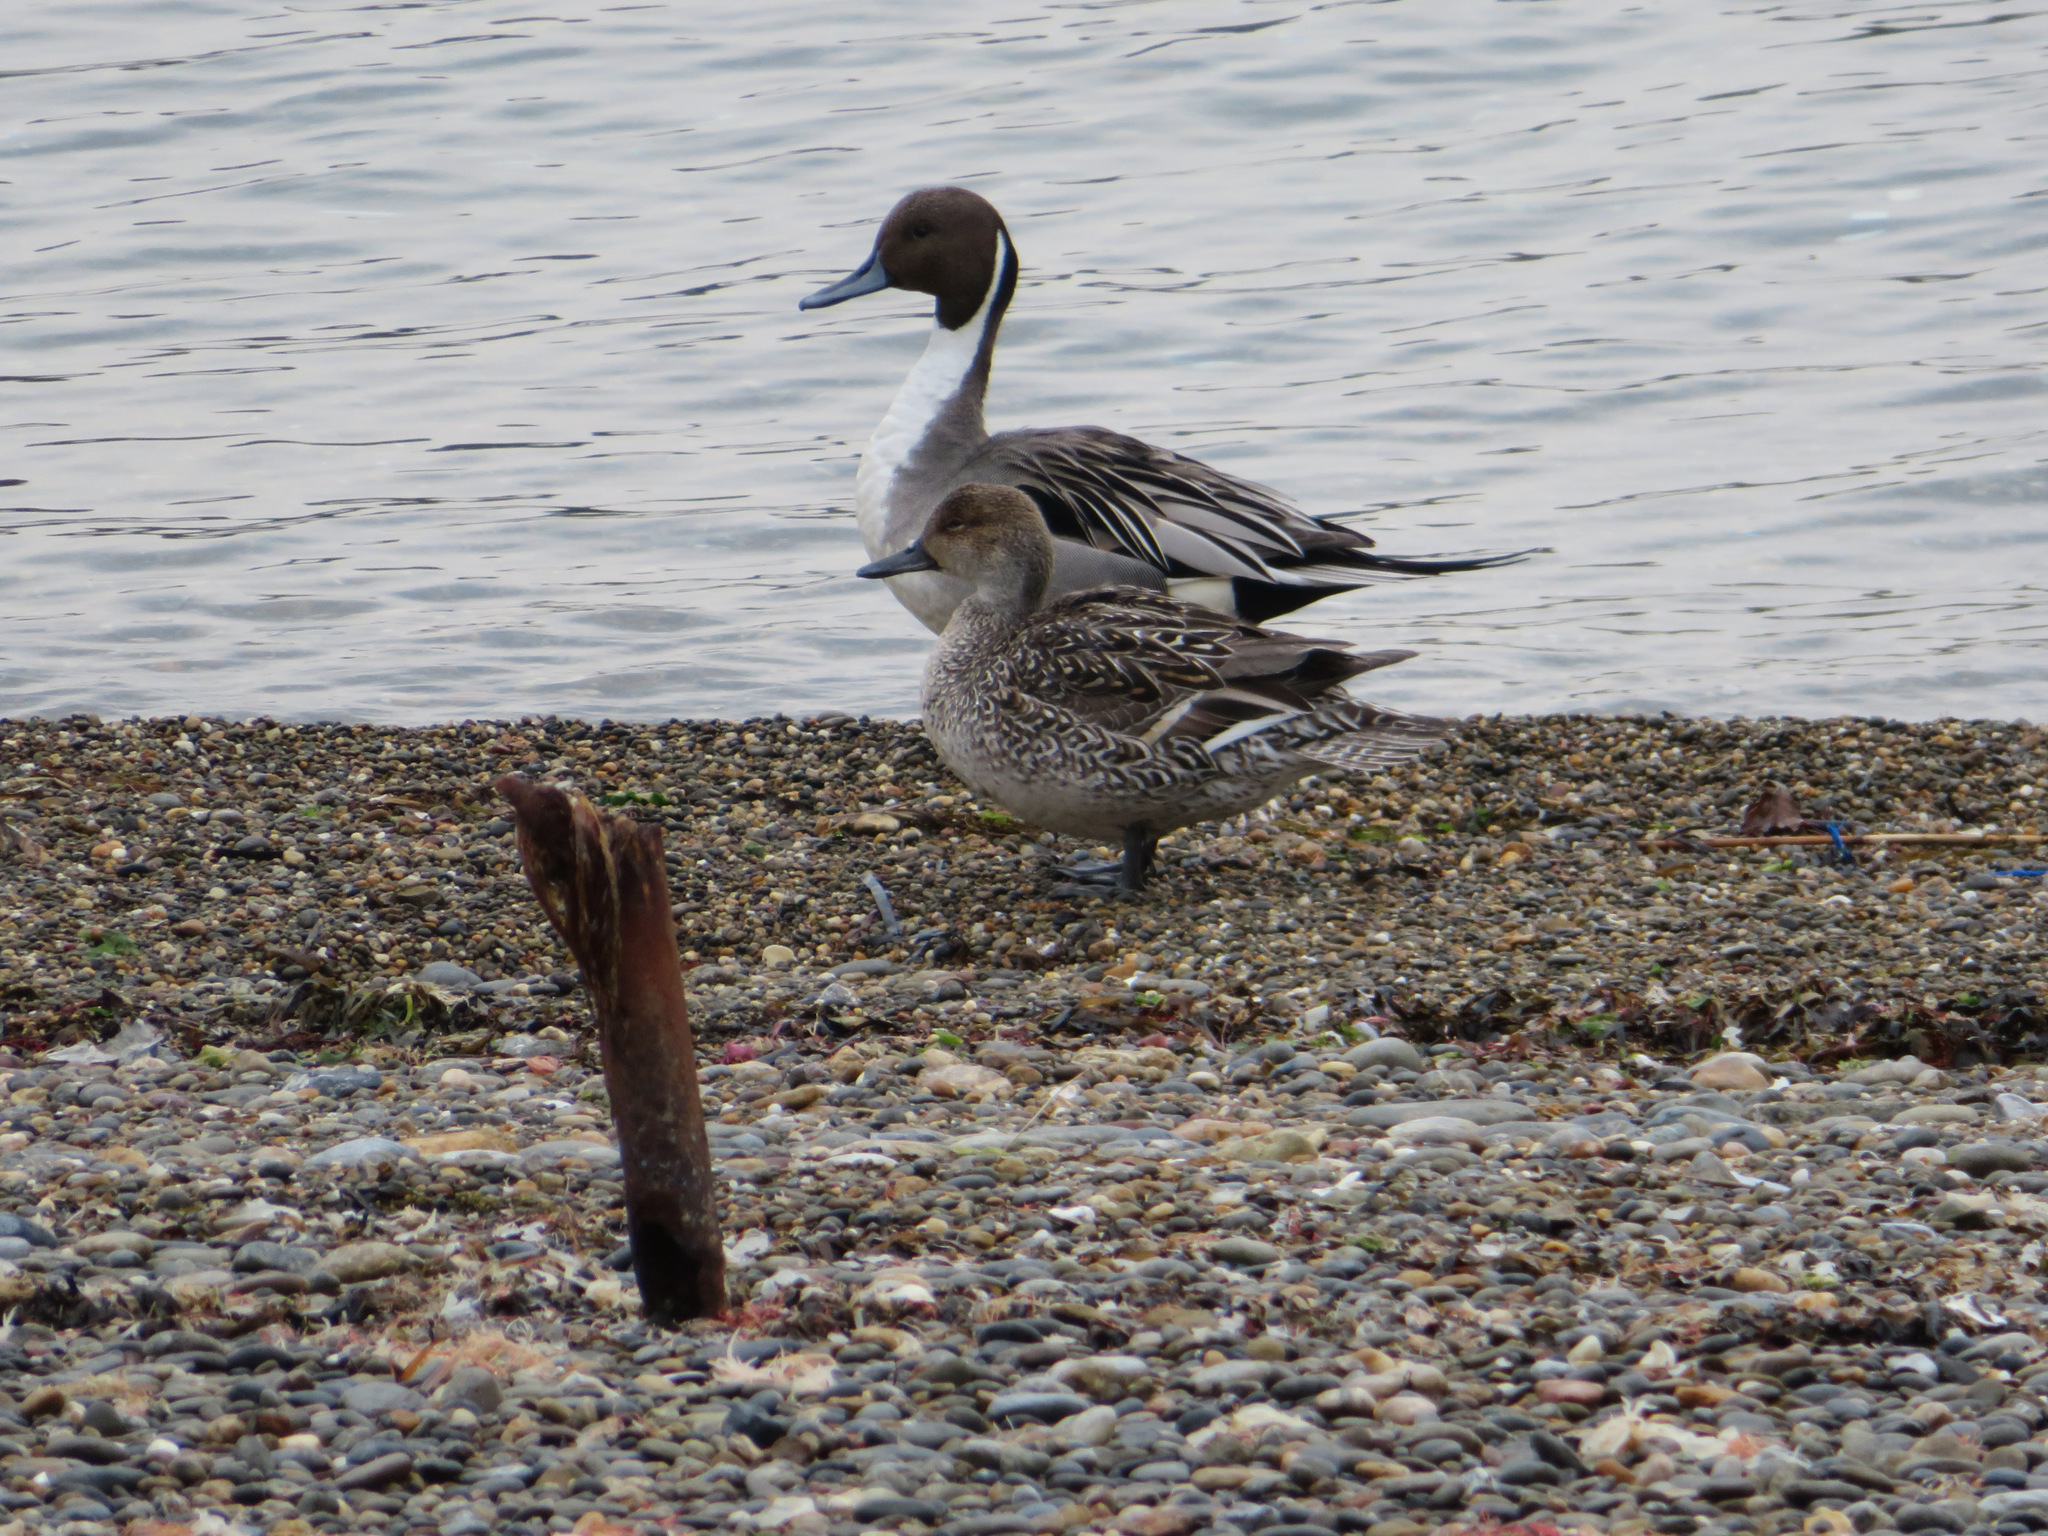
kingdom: Animalia
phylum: Chordata
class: Aves
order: Anseriformes
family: Anatidae
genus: Anas
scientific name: Anas acuta
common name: Northern pintail
